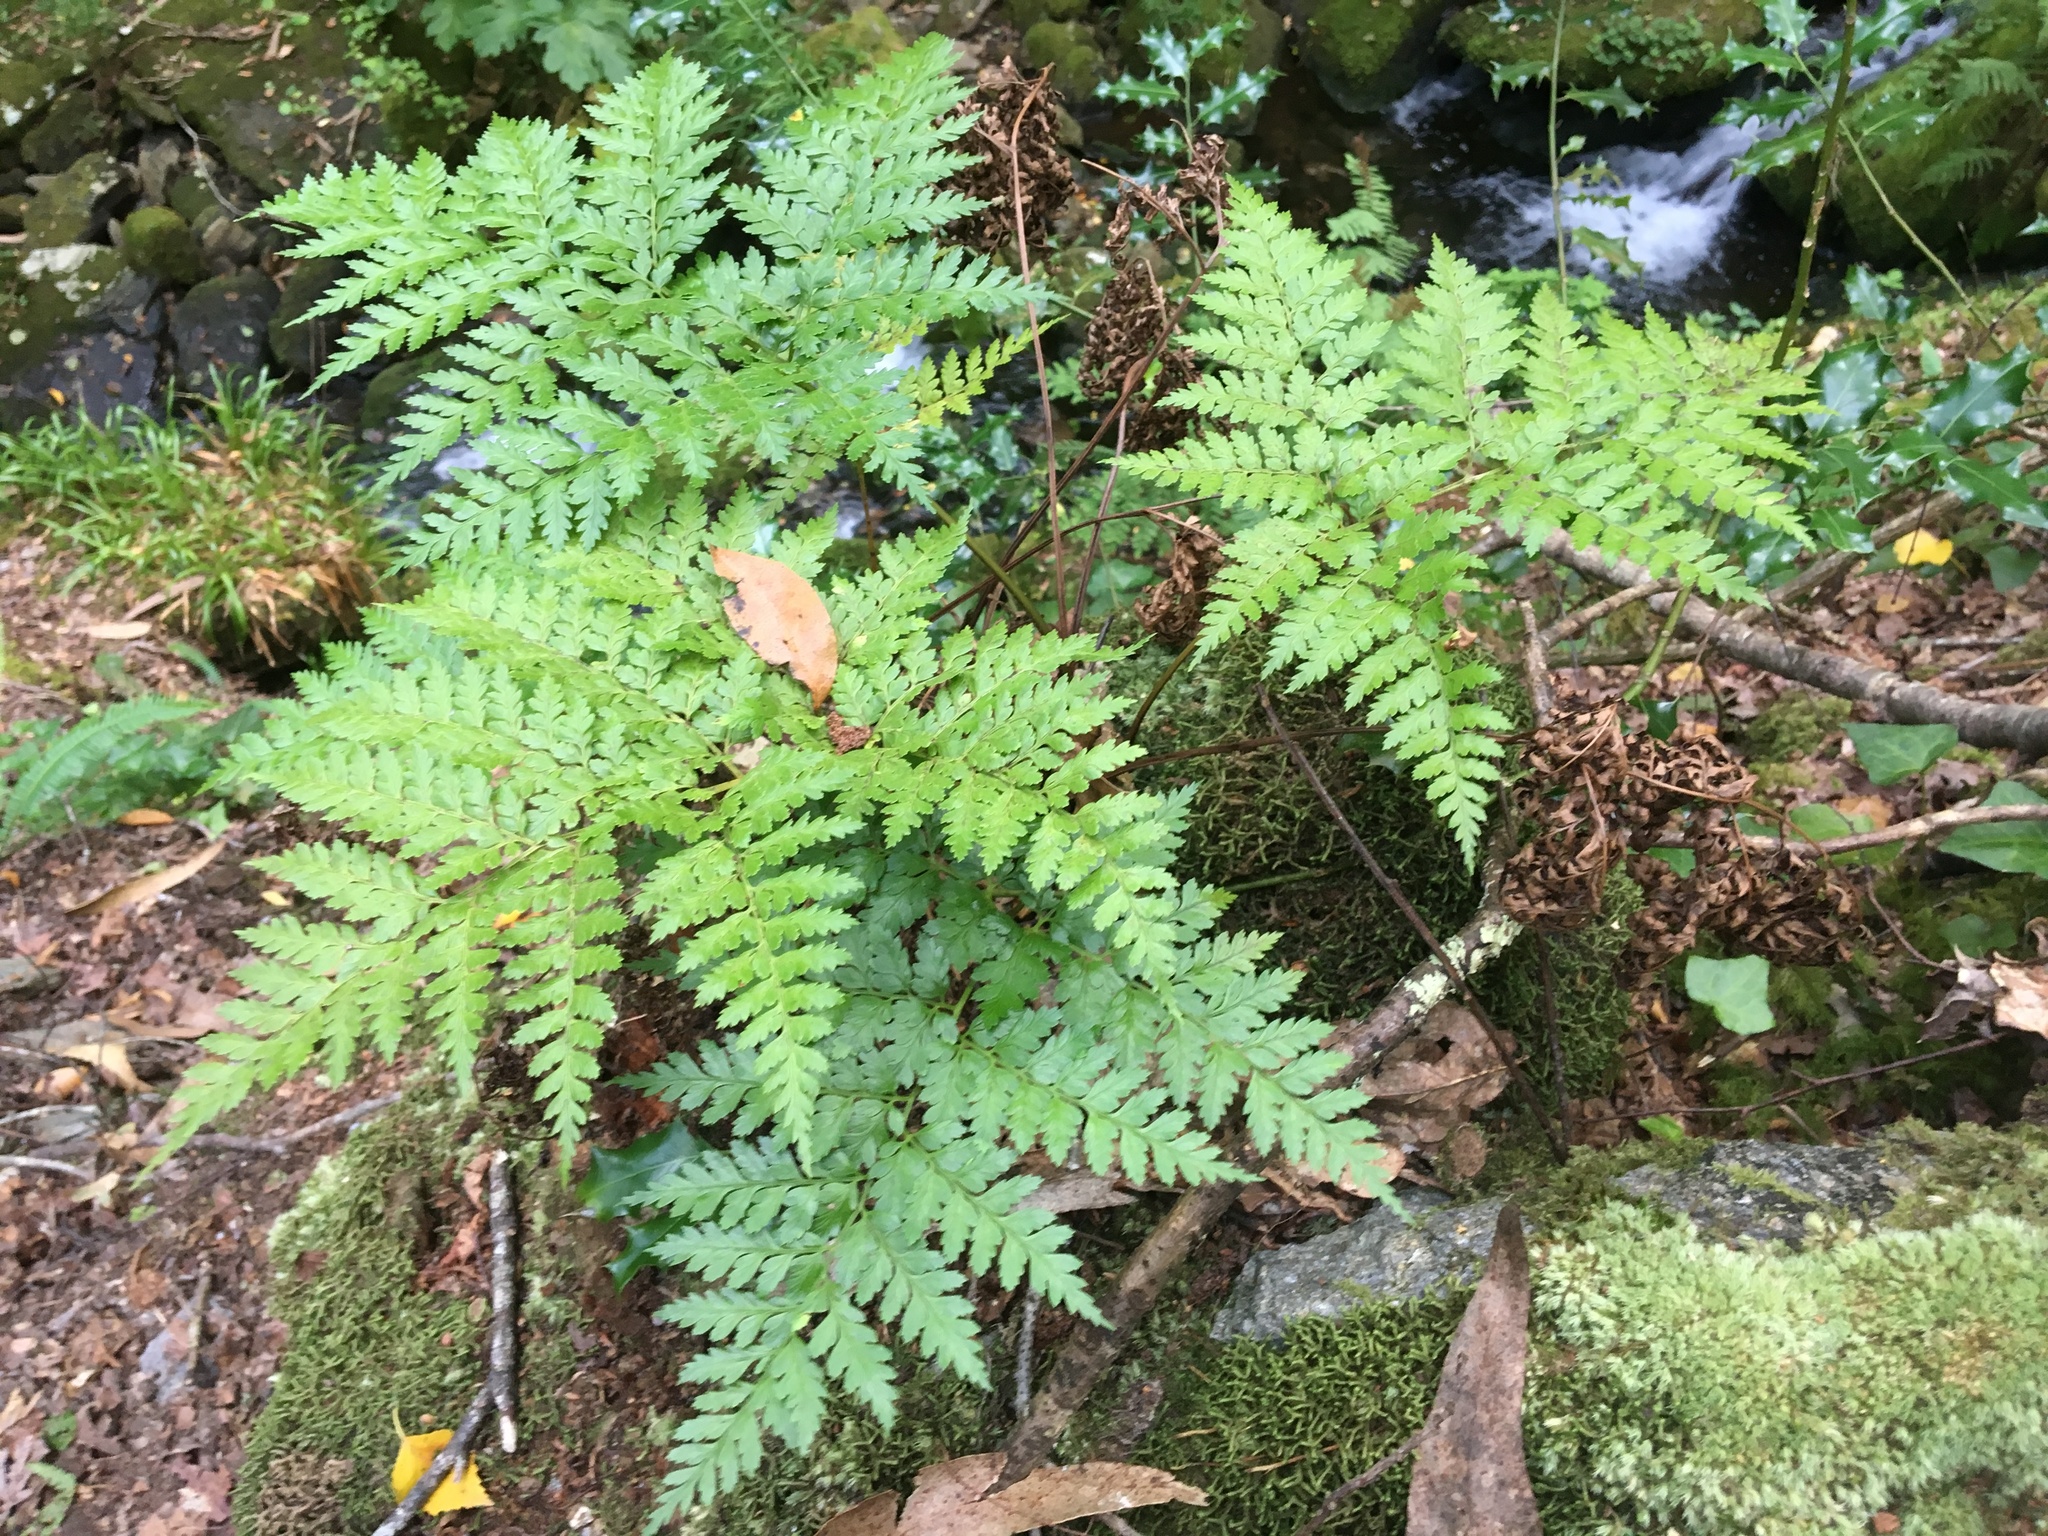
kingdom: Plantae
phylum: Tracheophyta
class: Polypodiopsida
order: Polypodiales
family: Davalliaceae
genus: Davallia
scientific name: Davallia canariensis
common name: Hare's-foot fern
